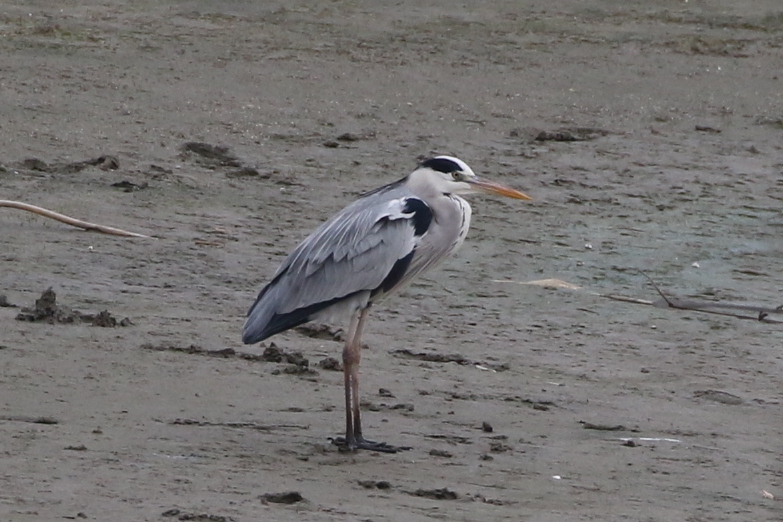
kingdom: Animalia
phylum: Chordata
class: Aves
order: Pelecaniformes
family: Ardeidae
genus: Ardea
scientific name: Ardea cinerea
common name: Grey heron
